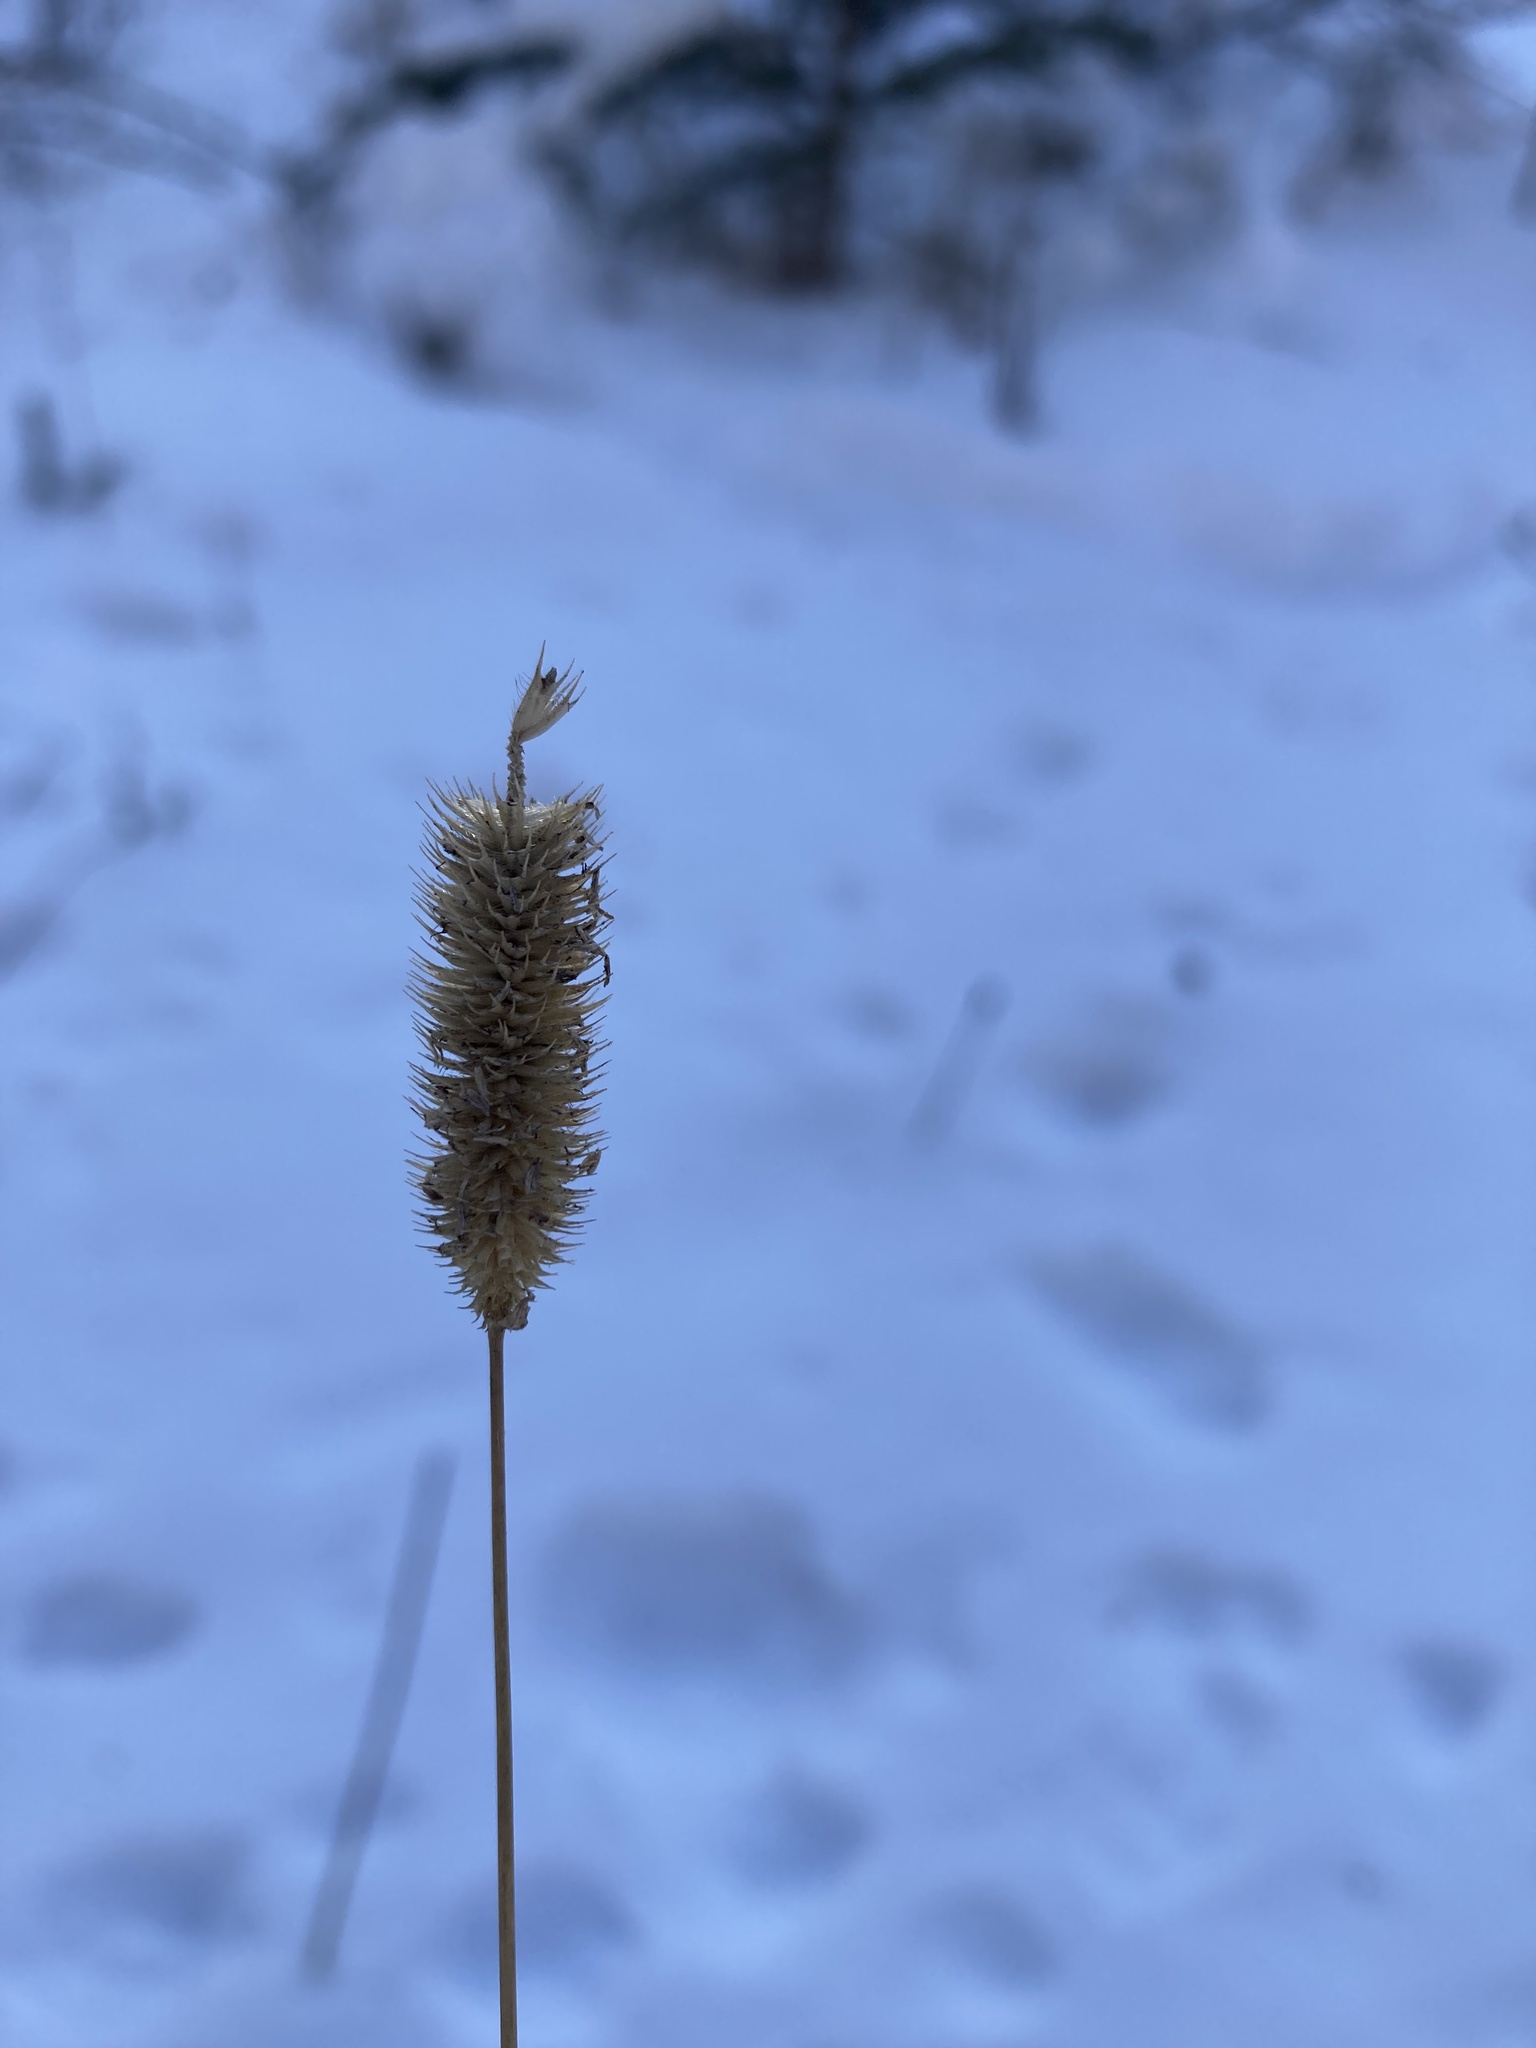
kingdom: Plantae
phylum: Tracheophyta
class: Liliopsida
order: Poales
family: Poaceae
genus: Phleum
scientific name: Phleum pratense
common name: Timothy grass
